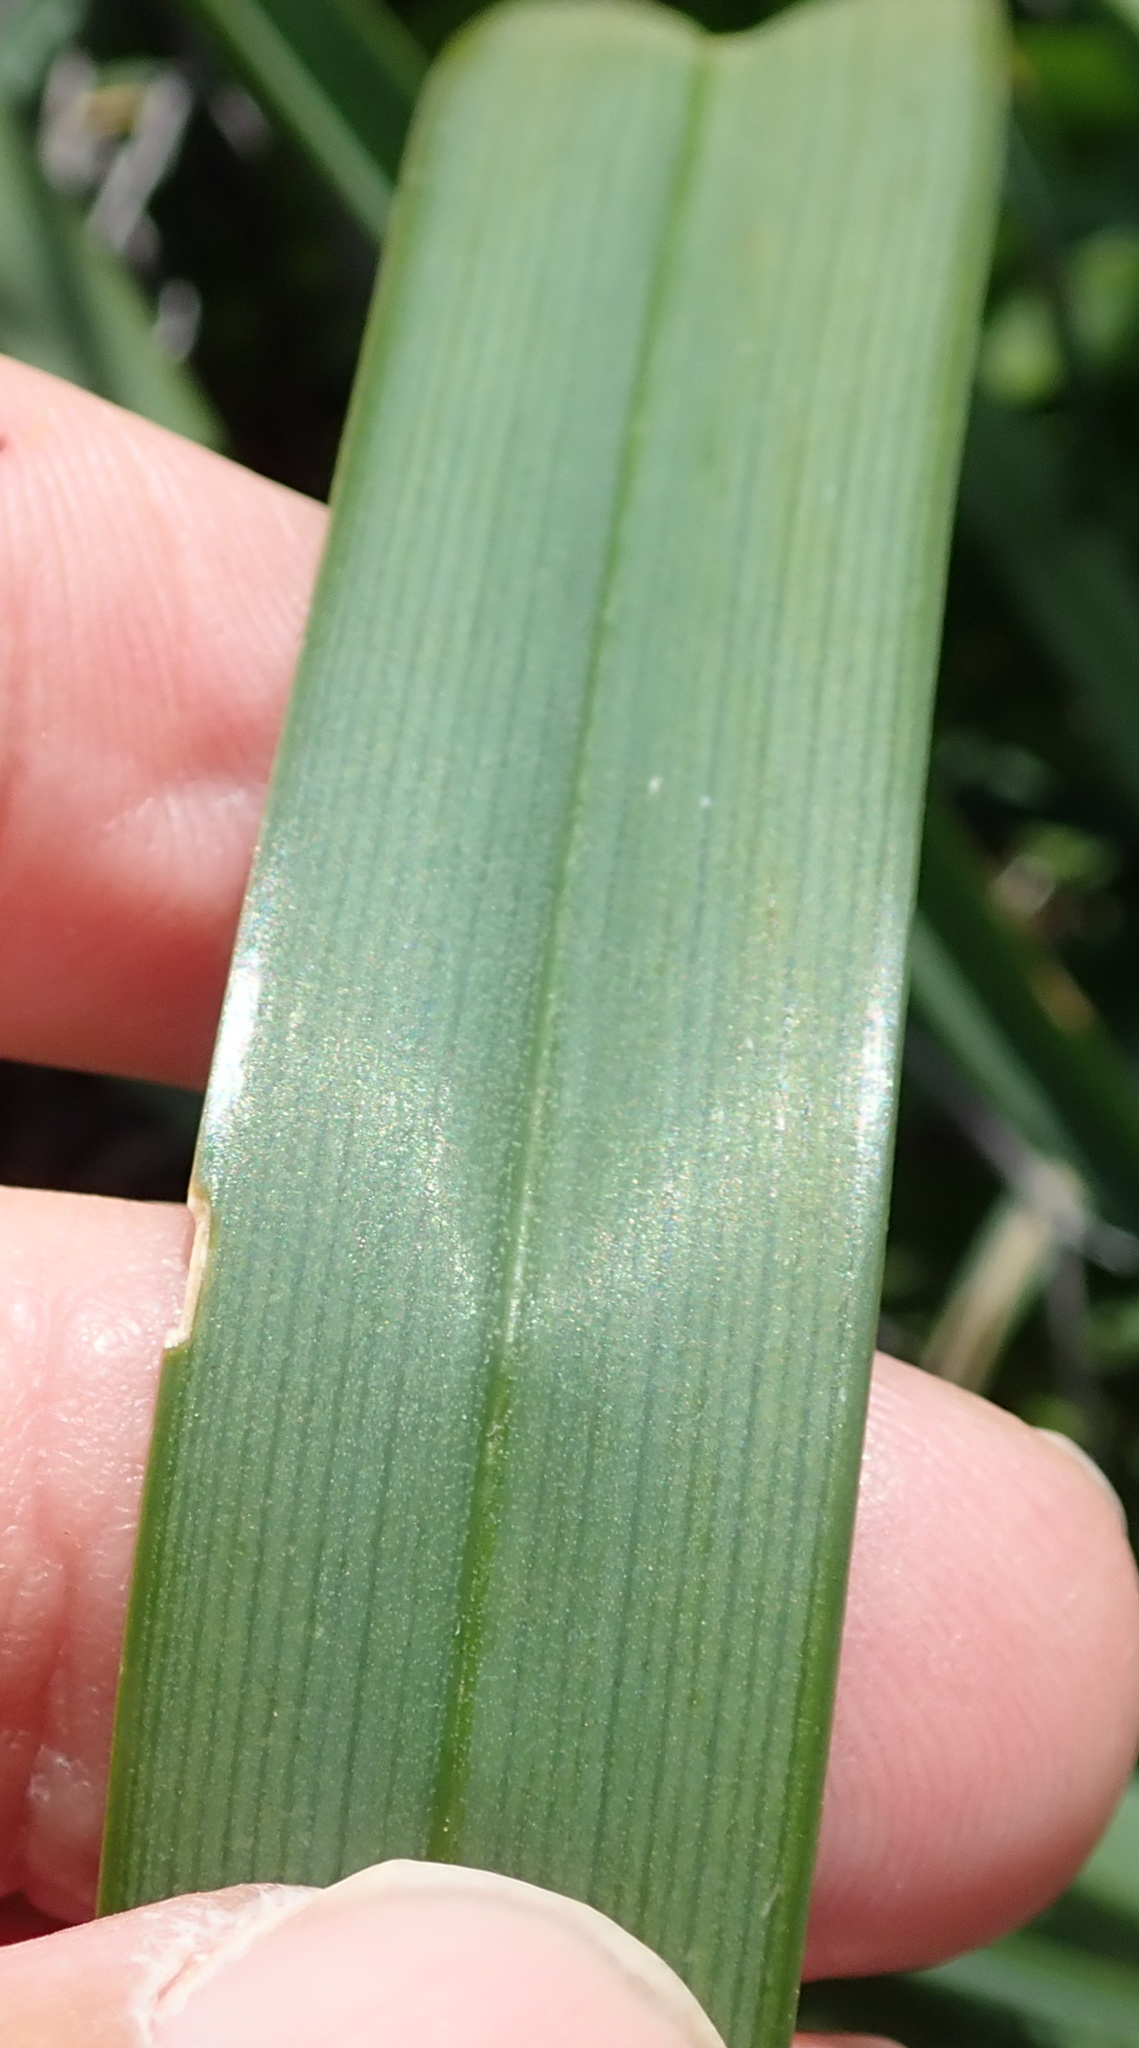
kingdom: Plantae
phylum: Tracheophyta
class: Liliopsida
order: Asparagales
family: Asphodelaceae
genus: Kniphofia
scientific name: Kniphofia sarmentosa
